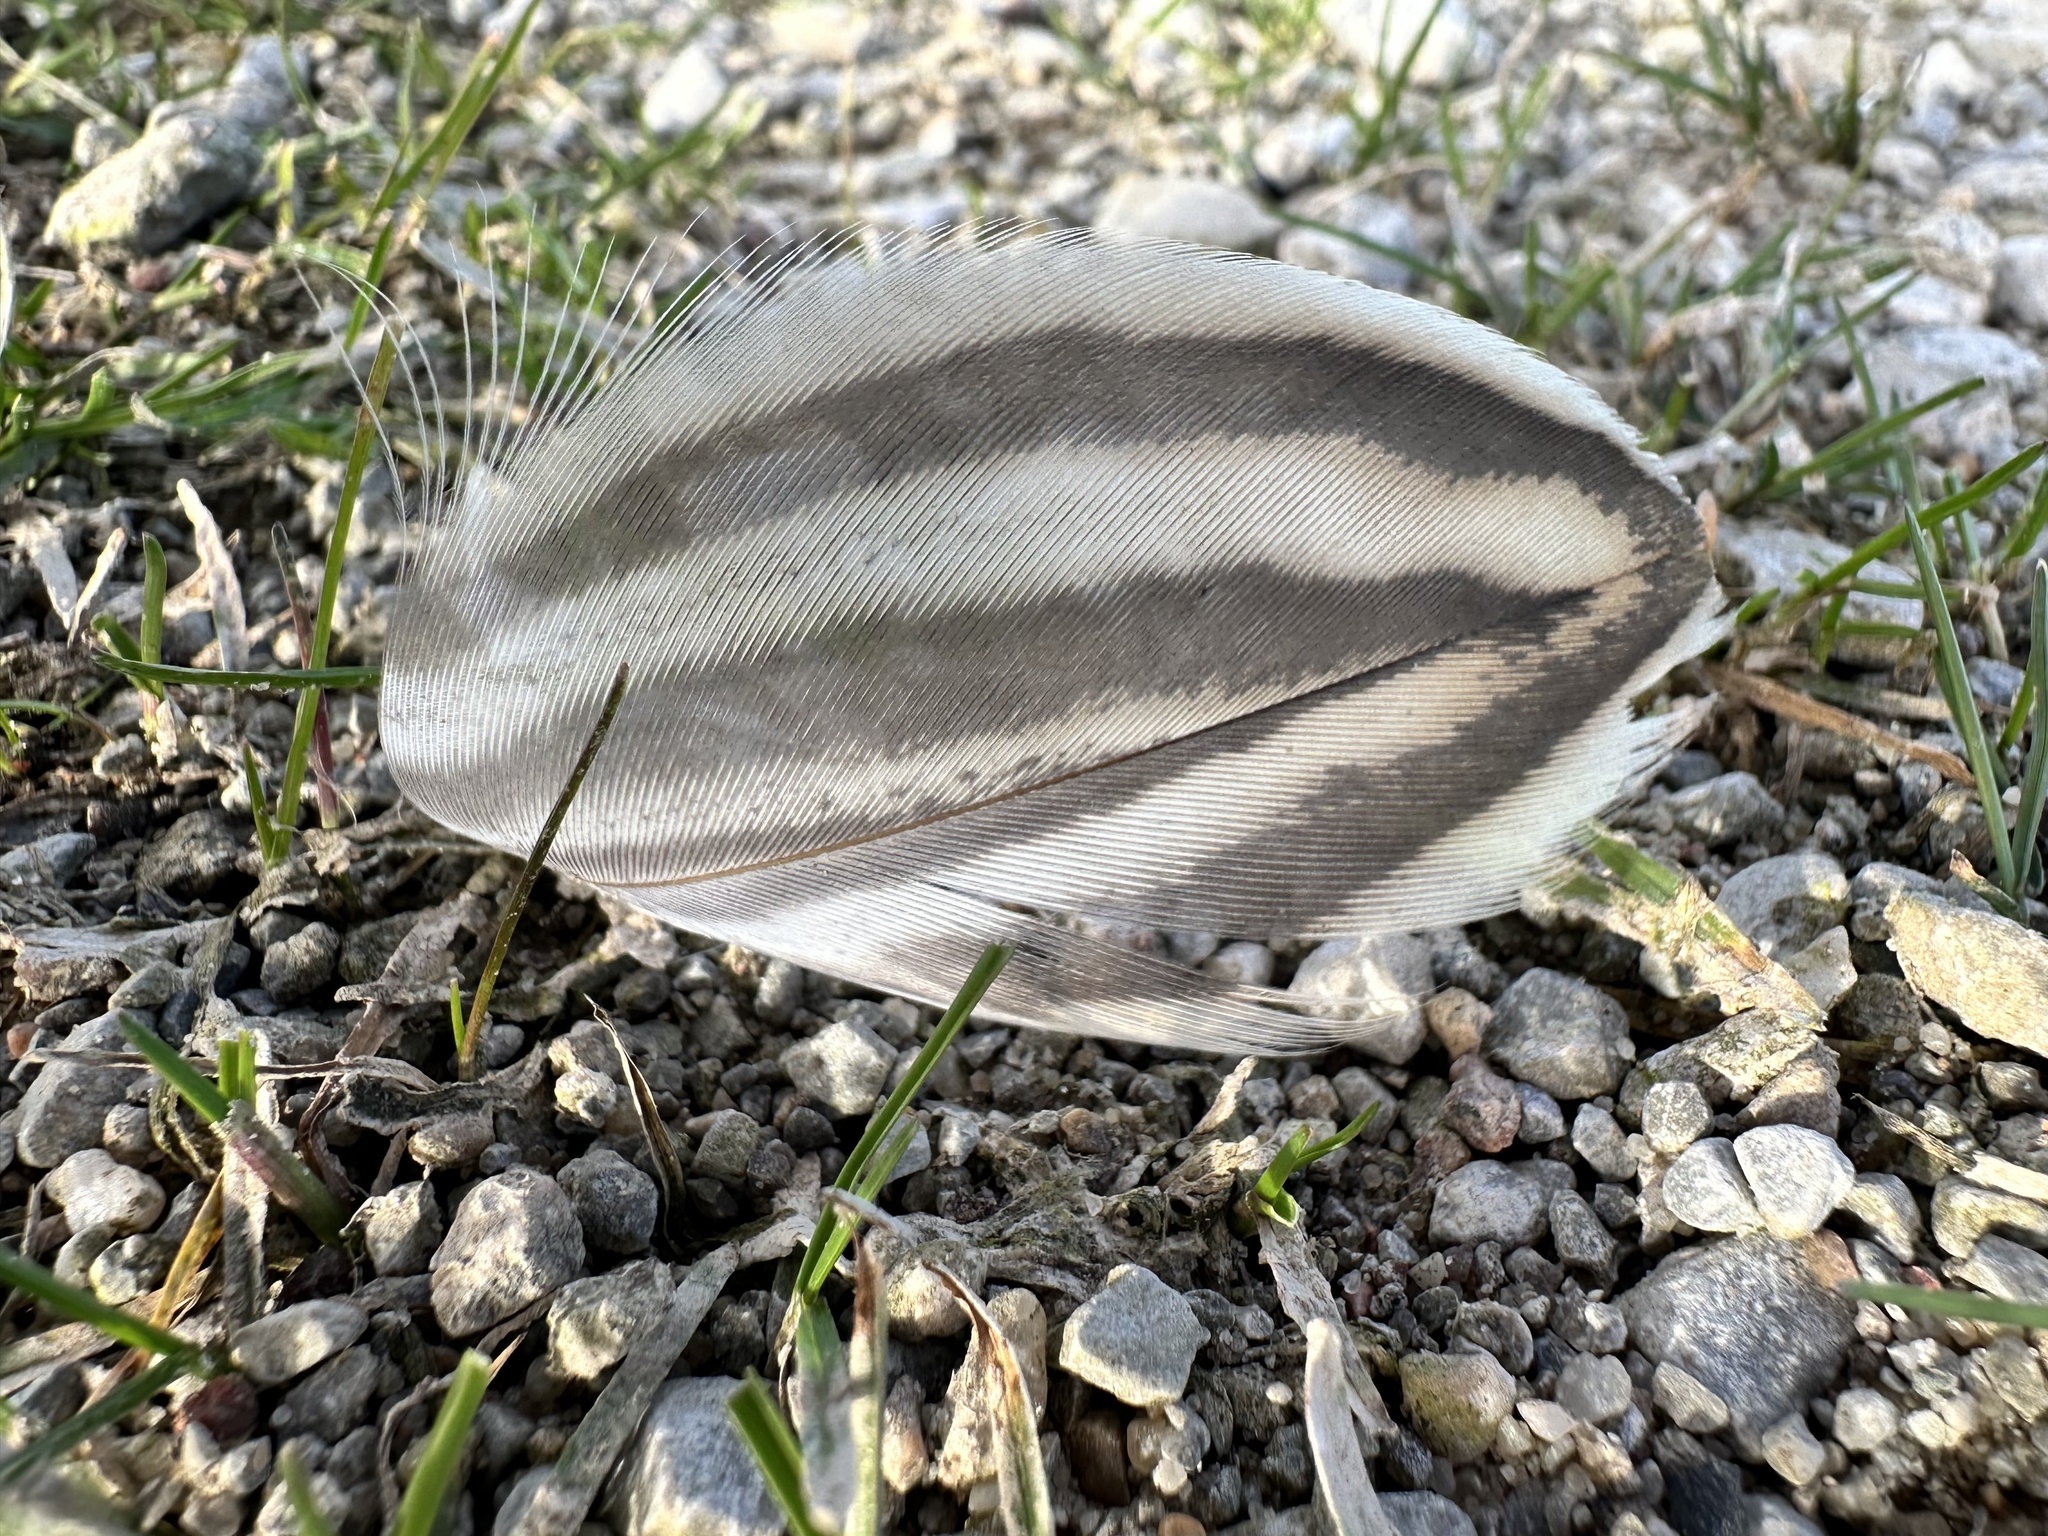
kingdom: Animalia
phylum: Chordata
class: Aves
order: Anseriformes
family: Anatidae
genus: Anas
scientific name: Anas platyrhynchos
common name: Mallard
